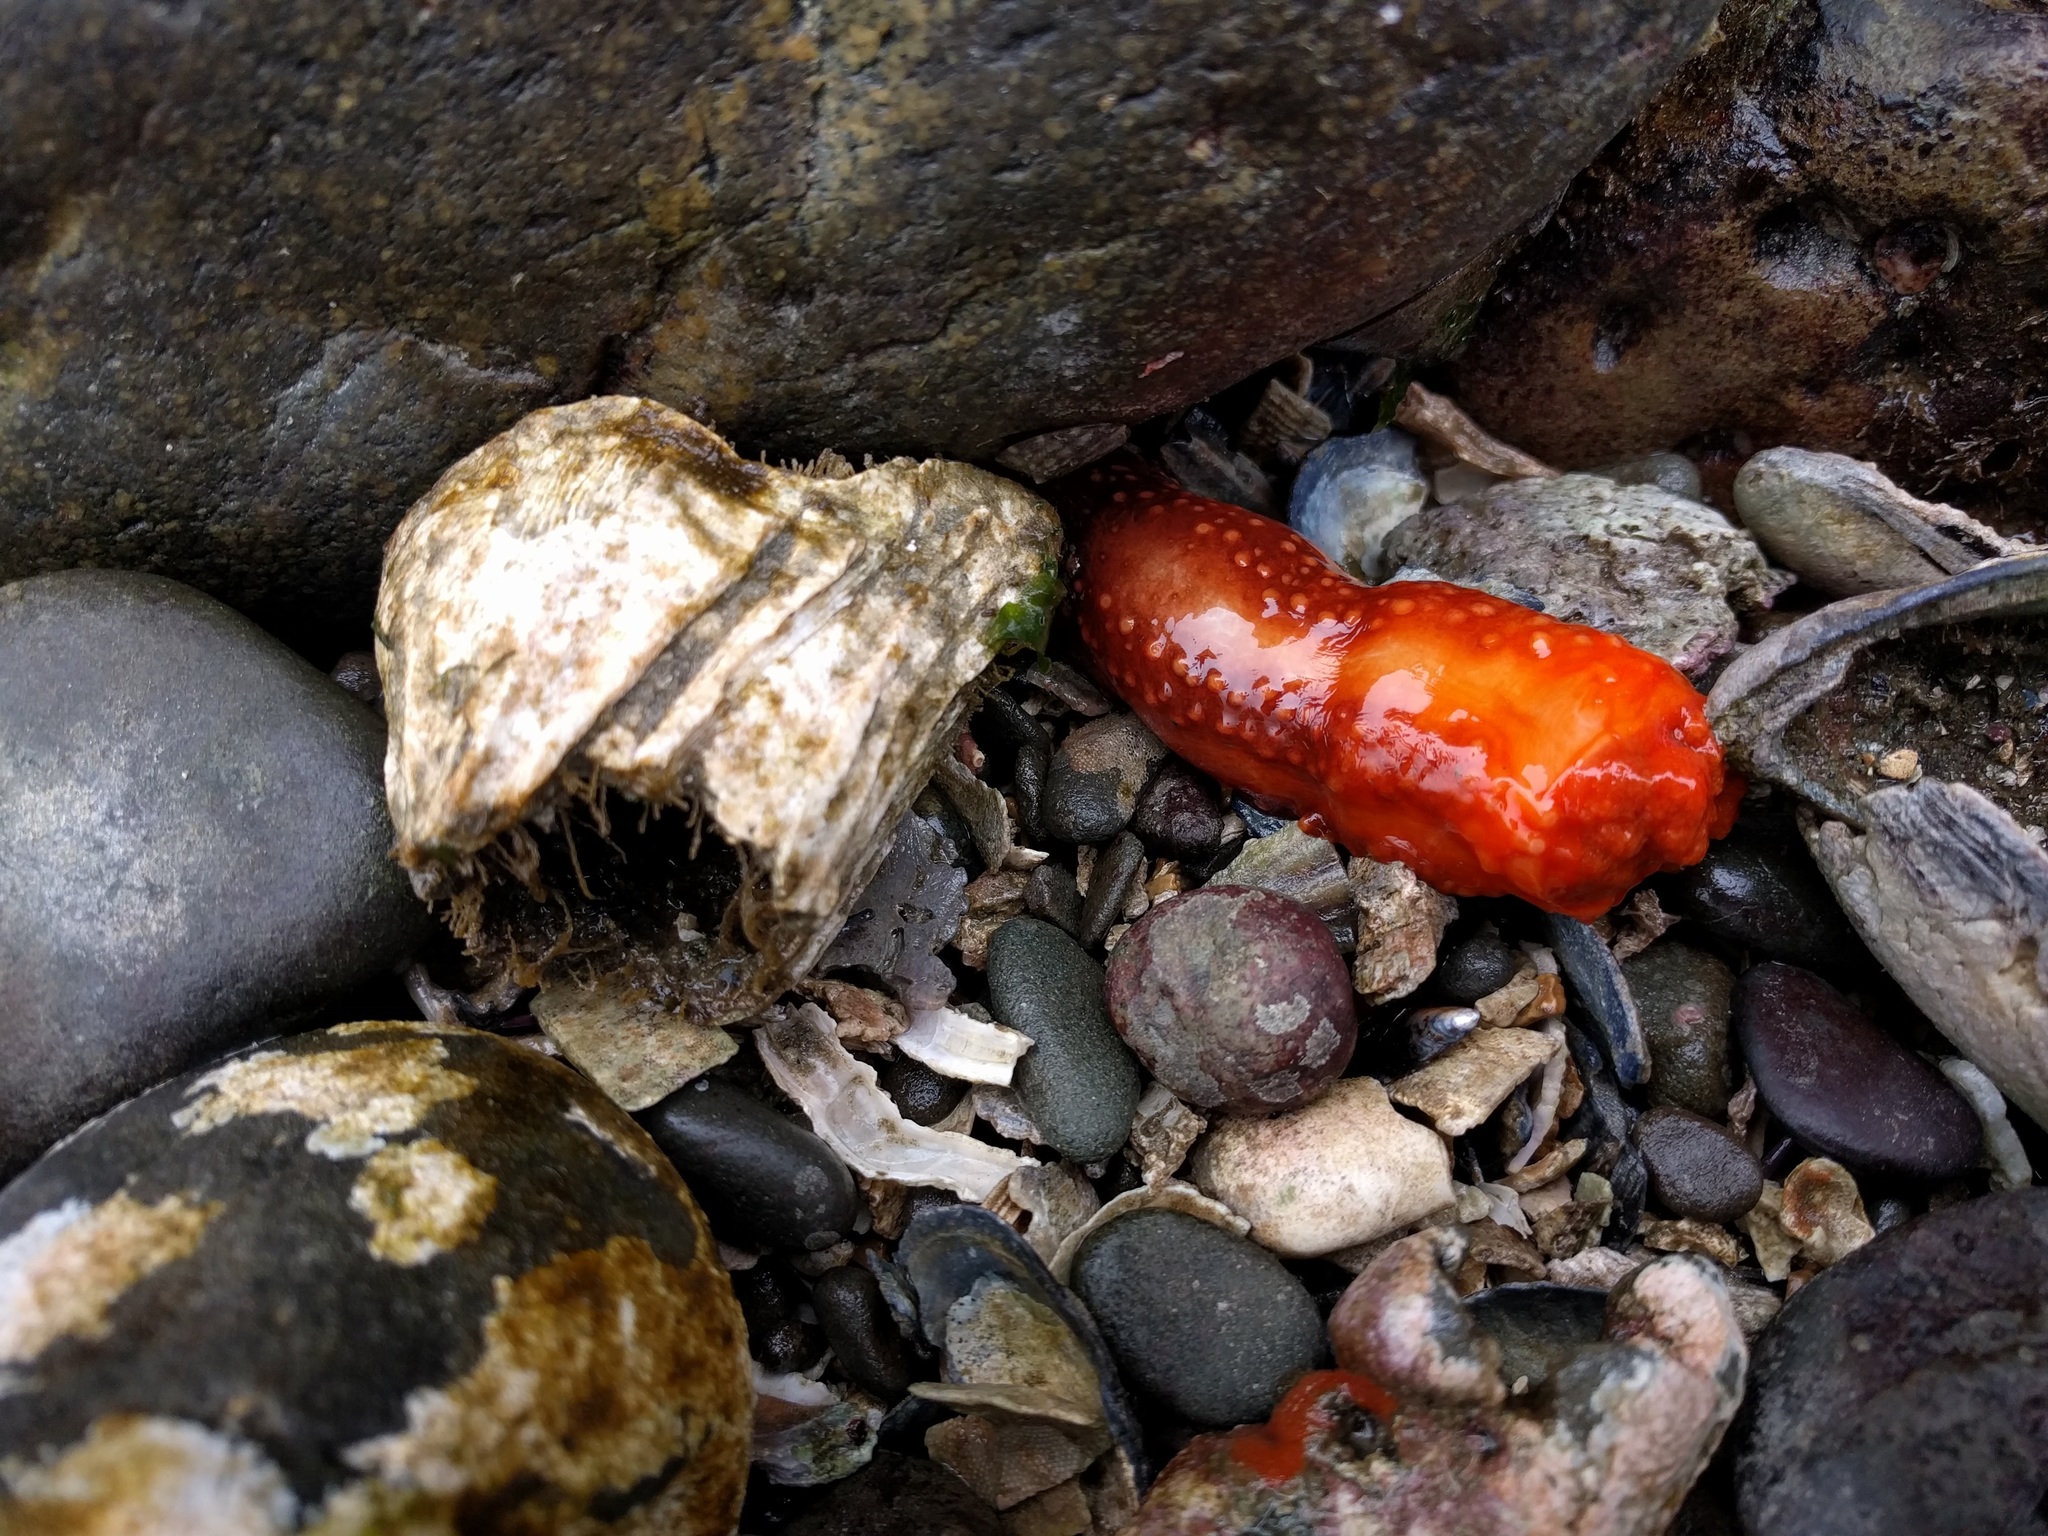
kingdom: Animalia
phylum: Echinodermata
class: Holothuroidea
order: Dendrochirotida
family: Cucumariidae
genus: Cucumaria
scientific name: Cucumaria miniata
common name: Orange sea cucumber
